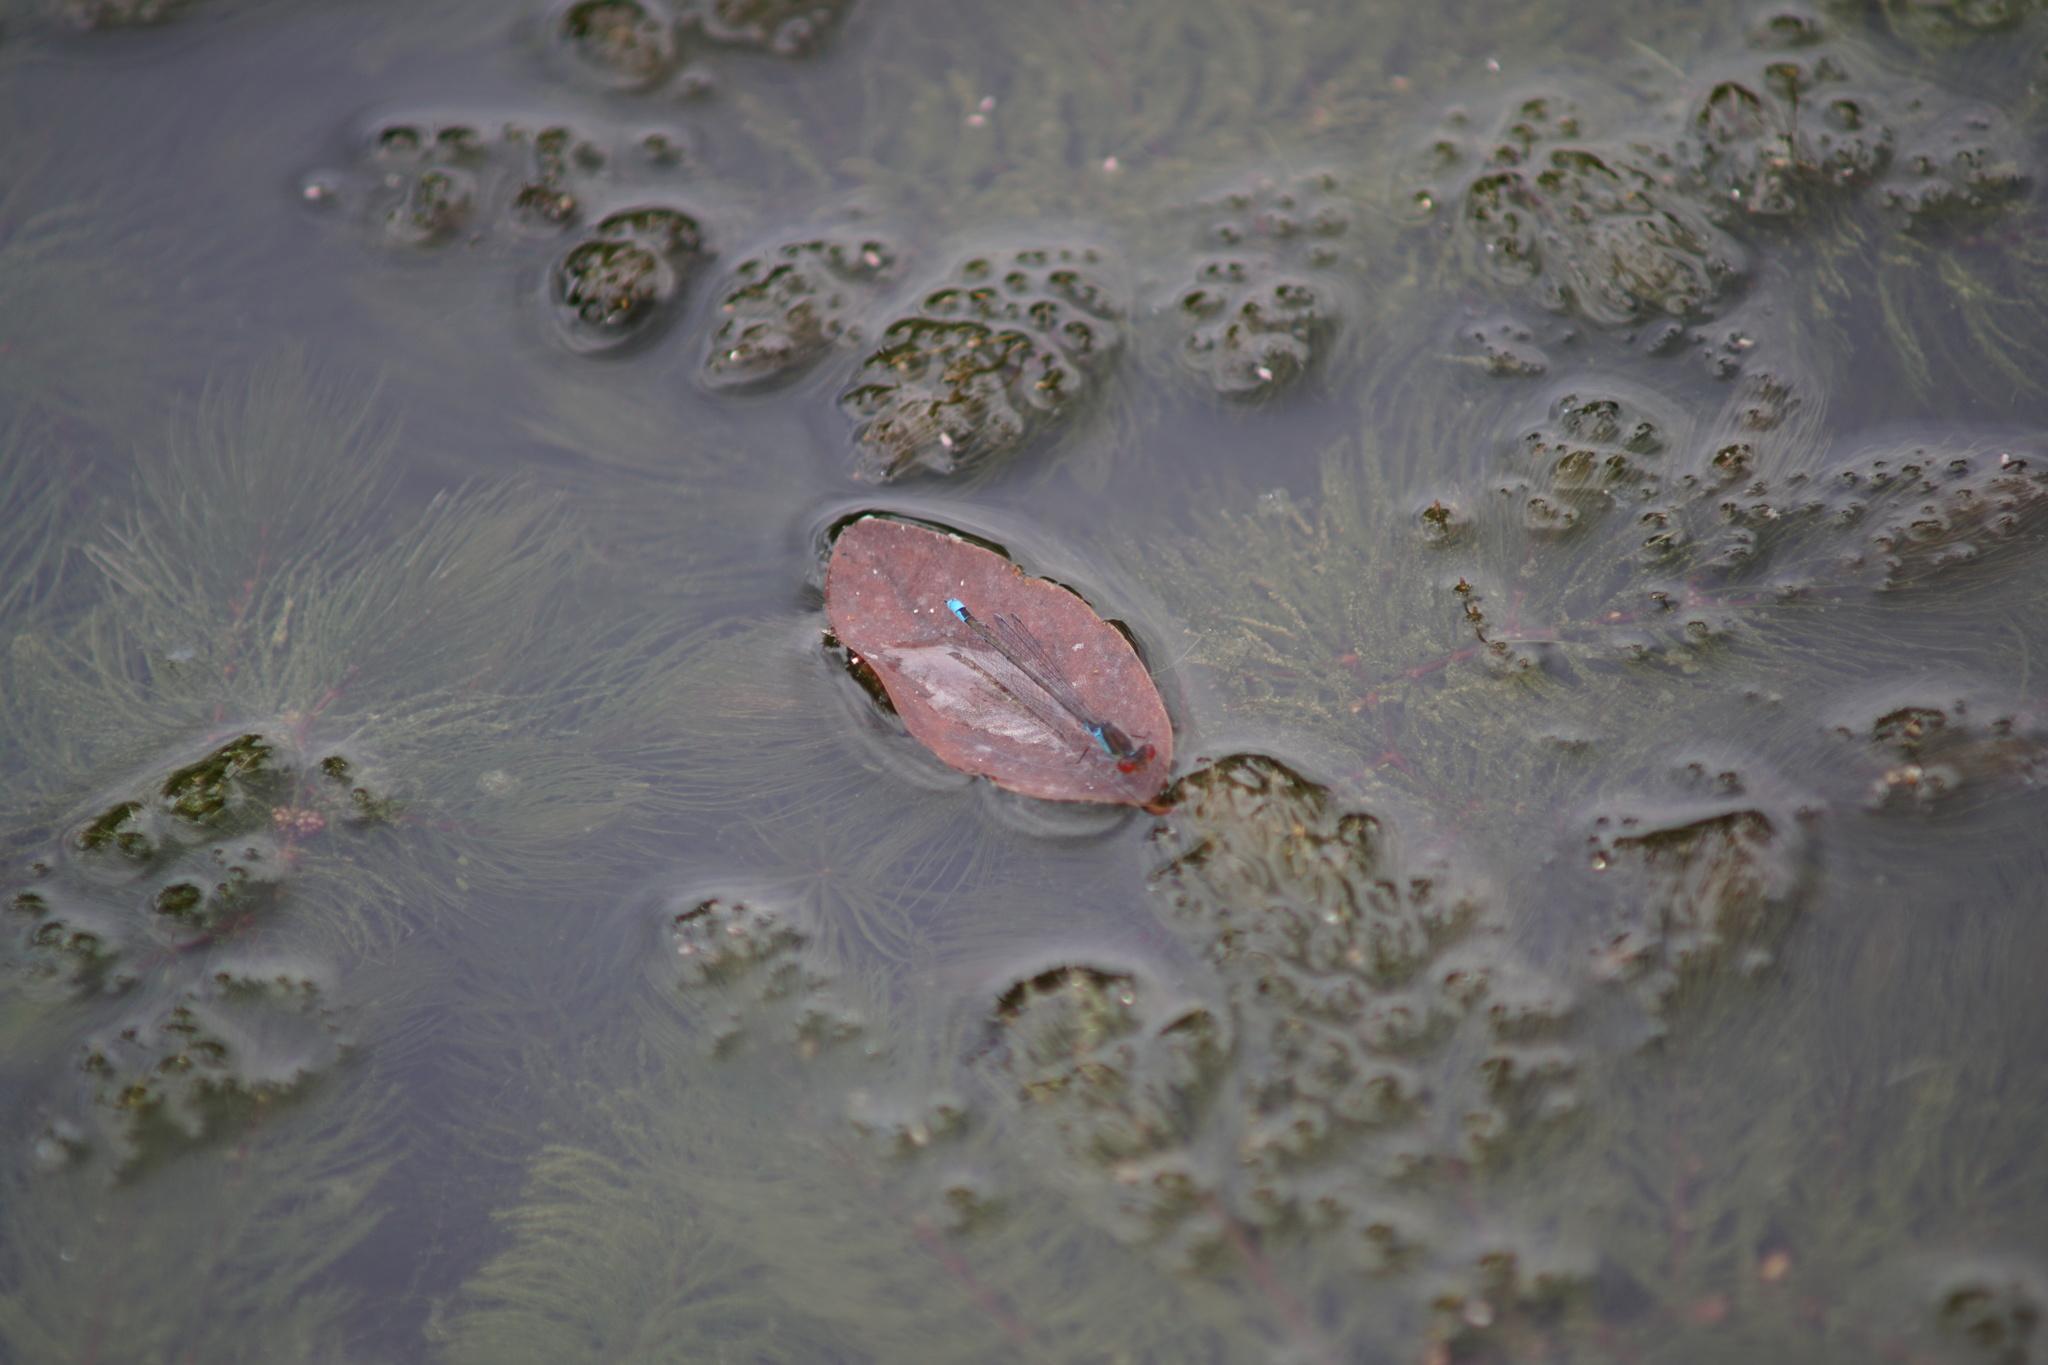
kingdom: Animalia
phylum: Arthropoda
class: Insecta
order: Odonata
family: Coenagrionidae
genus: Erythromma
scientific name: Erythromma viridulum
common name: Small red-eyed damselfly
